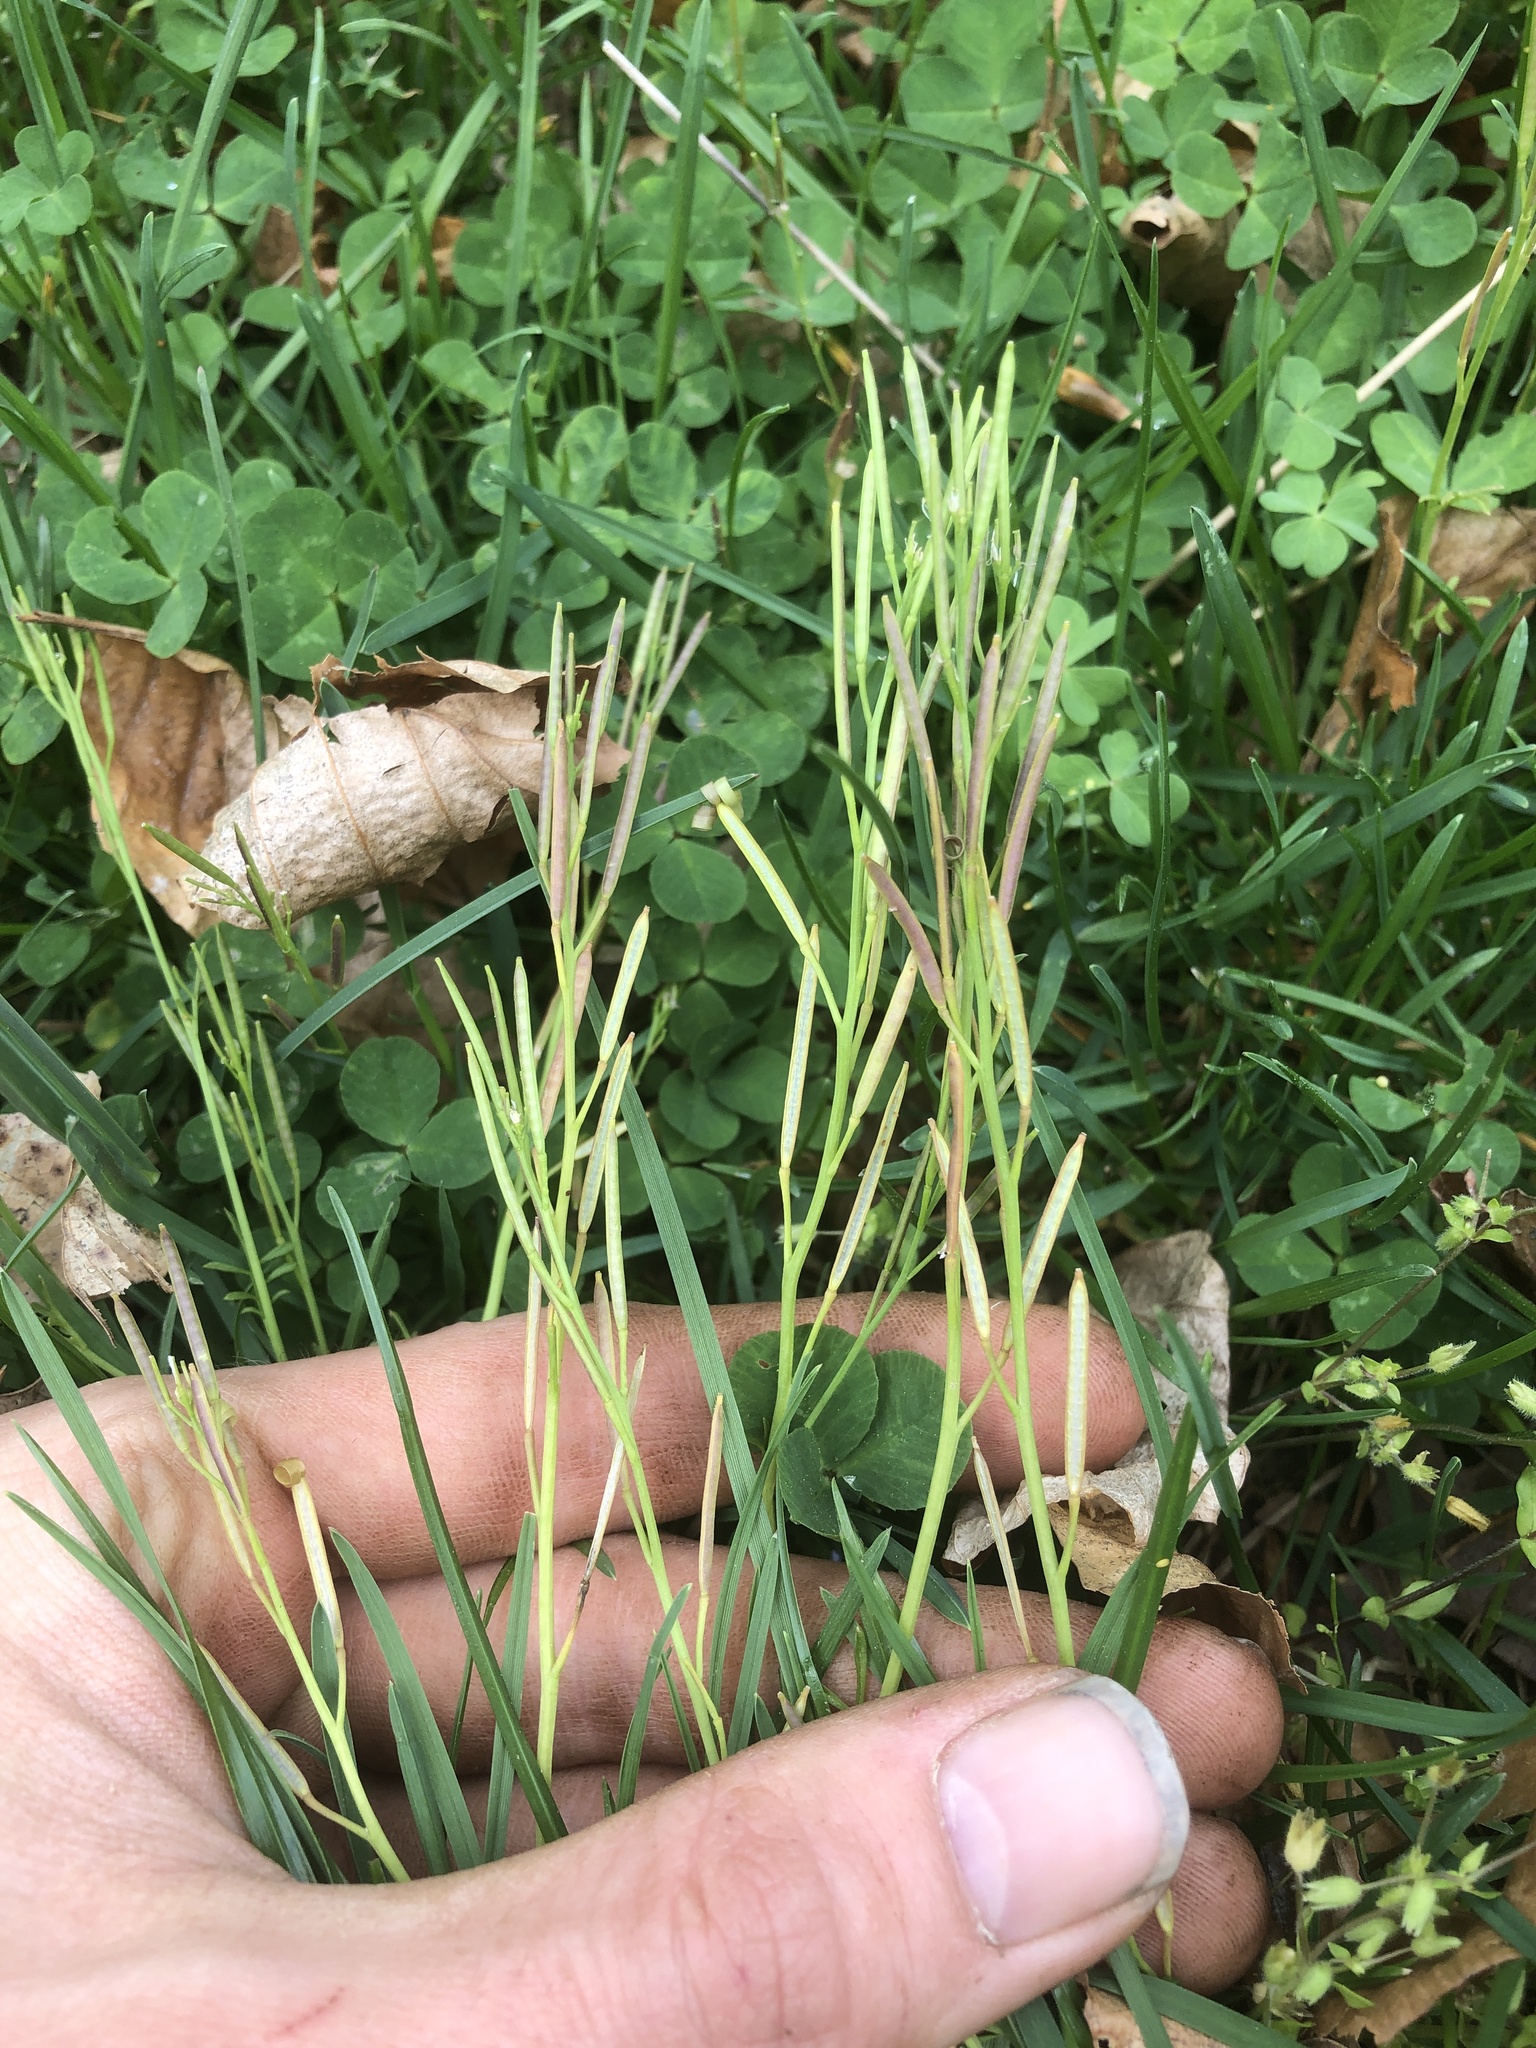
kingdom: Plantae
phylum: Tracheophyta
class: Magnoliopsida
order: Brassicales
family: Brassicaceae
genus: Cardamine
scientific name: Cardamine hirsuta
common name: Hairy bittercress
